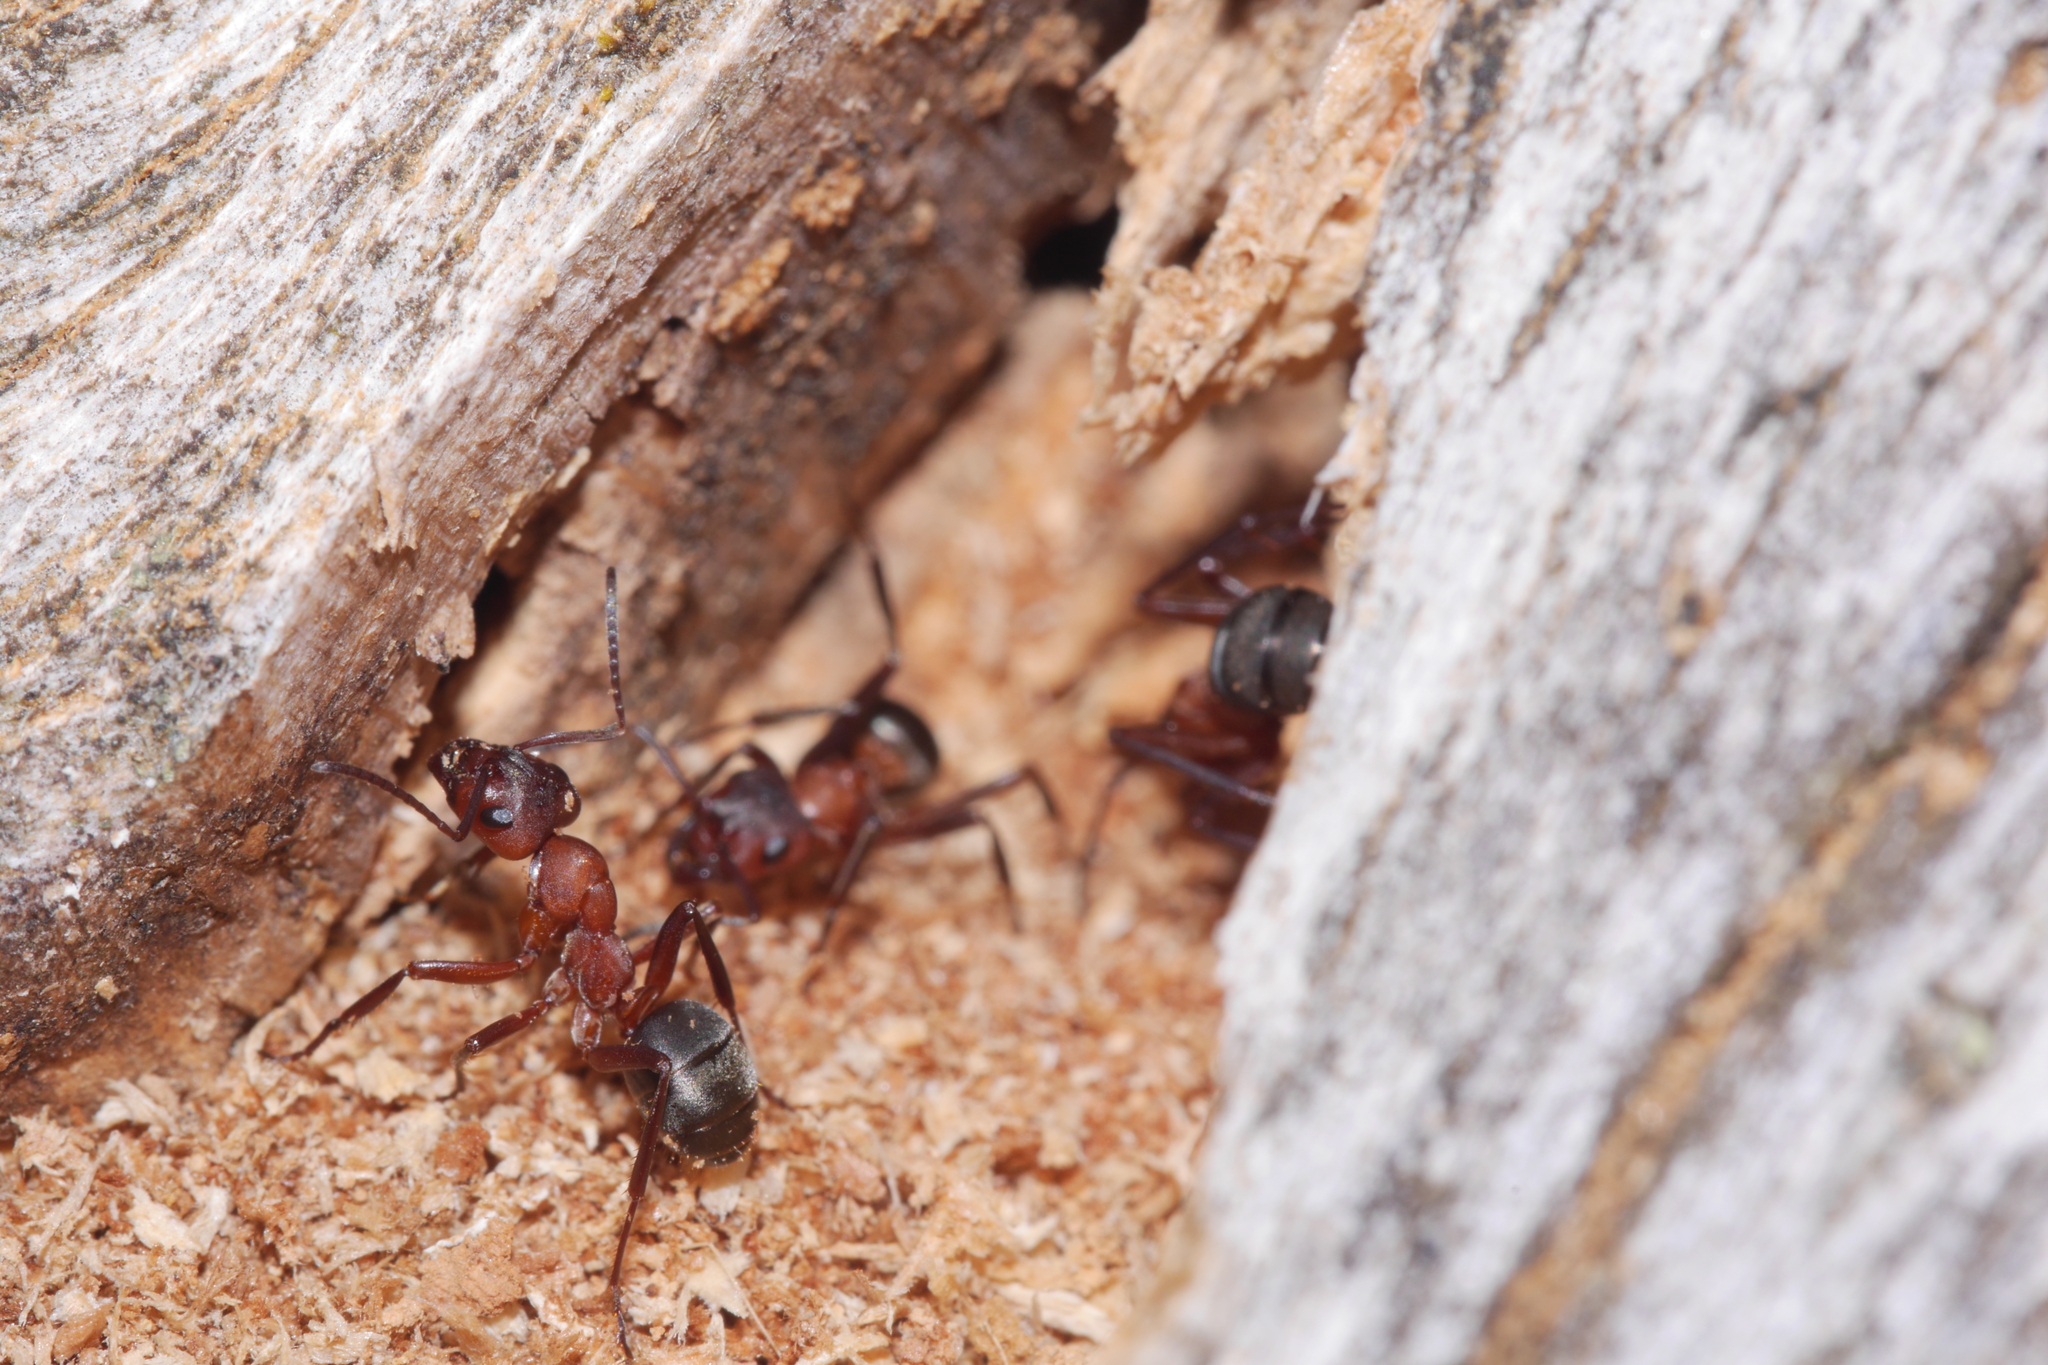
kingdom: Animalia
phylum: Arthropoda
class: Insecta
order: Hymenoptera
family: Formicidae
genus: Formica
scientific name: Formica sanguinea
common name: Blood-red ant
